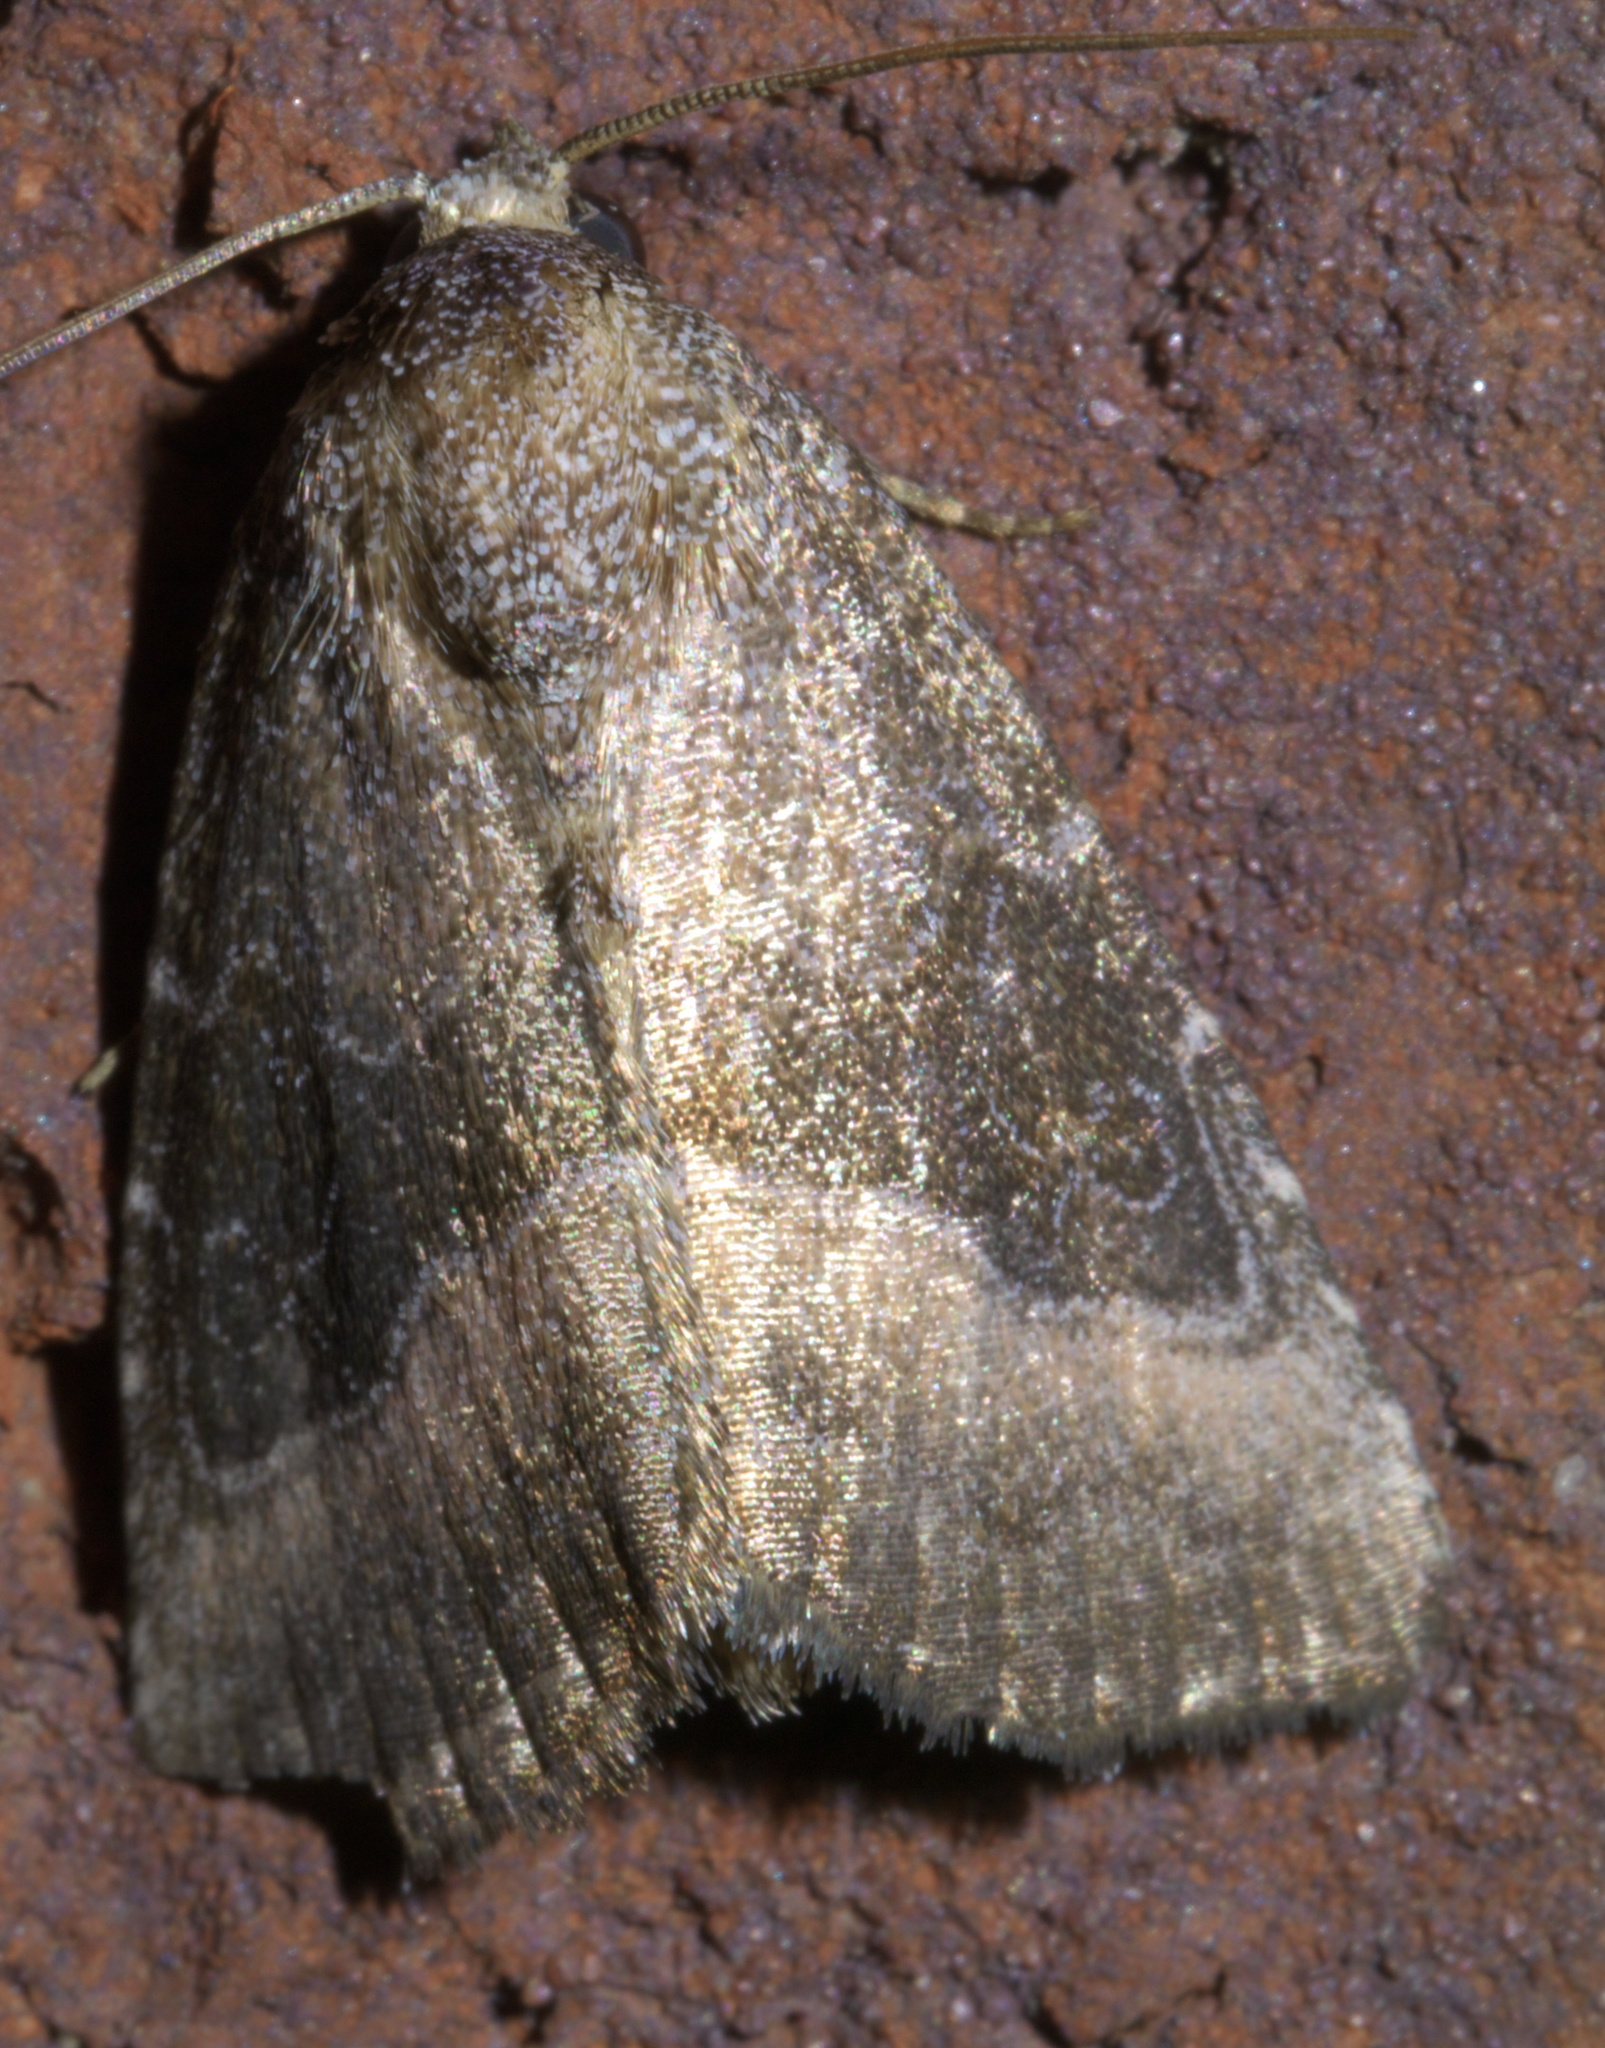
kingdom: Animalia
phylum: Arthropoda
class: Insecta
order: Lepidoptera
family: Noctuidae
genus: Ogdoconta
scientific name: Ogdoconta cinereola
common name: Common pinkband
